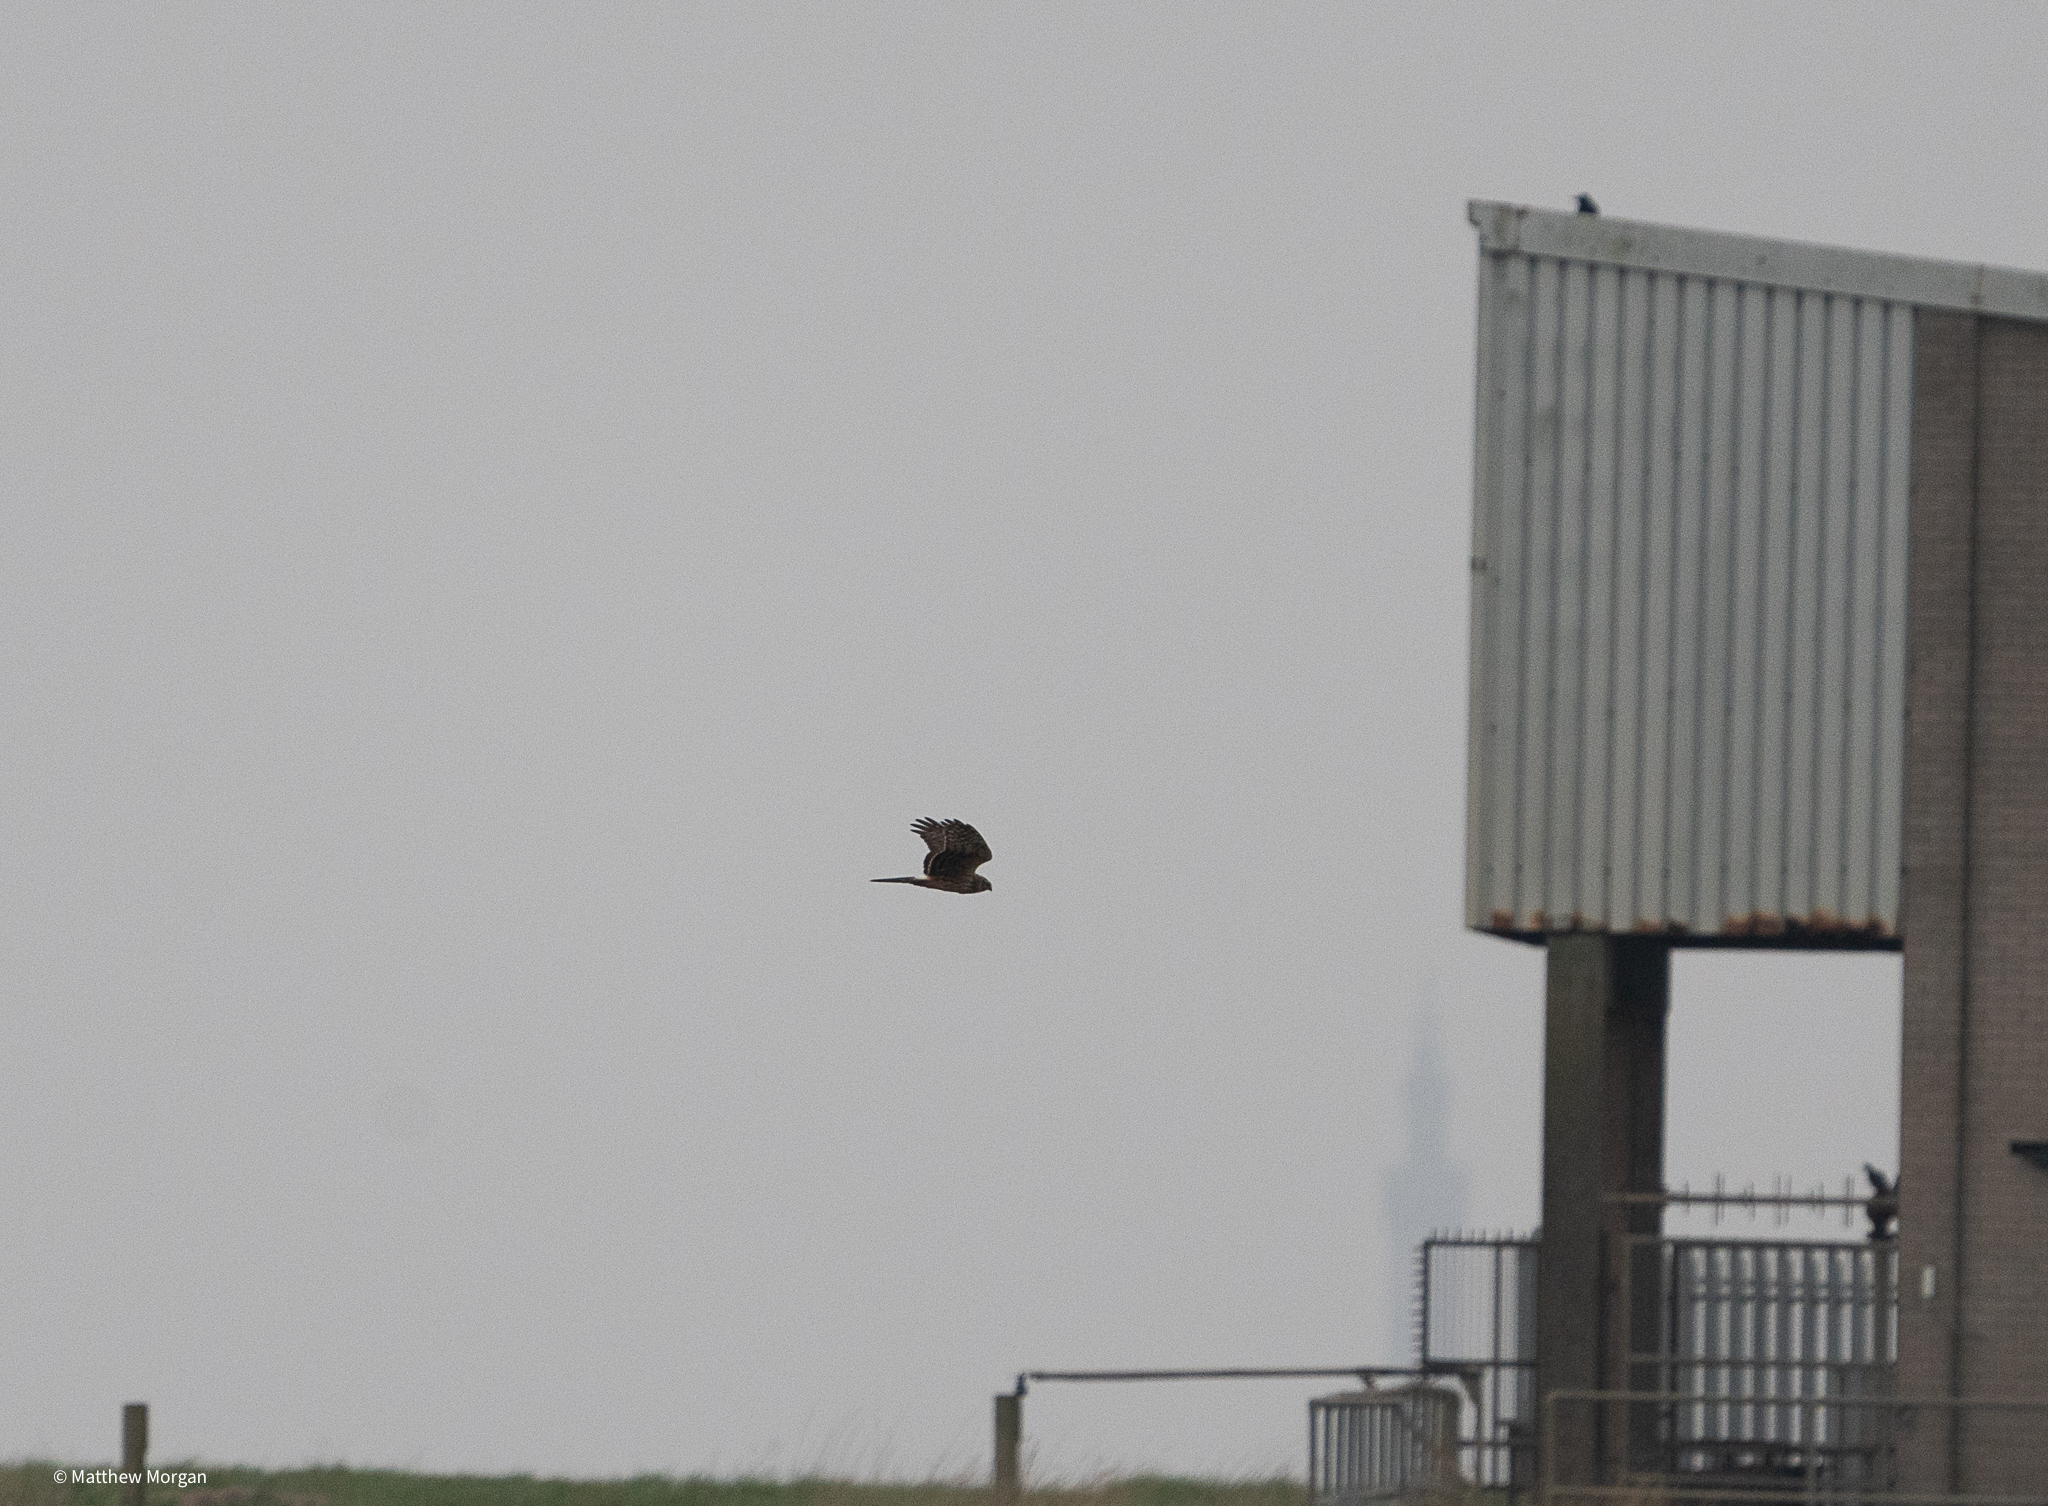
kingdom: Animalia
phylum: Chordata
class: Aves
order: Accipitriformes
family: Accipitridae
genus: Circus
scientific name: Circus cyaneus
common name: Hen harrier
